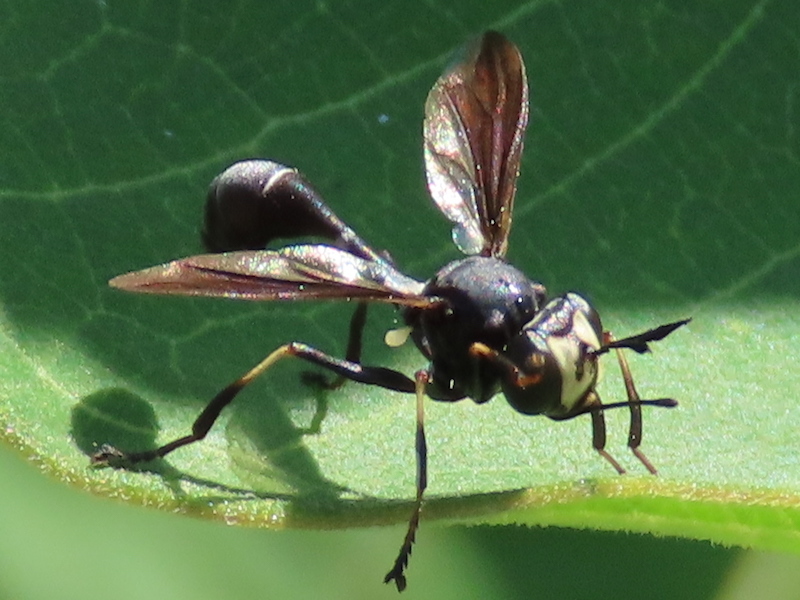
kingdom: Animalia
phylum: Arthropoda
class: Insecta
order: Diptera
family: Conopidae
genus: Physocephala
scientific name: Physocephala tibialis
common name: Common eastern physocephala
